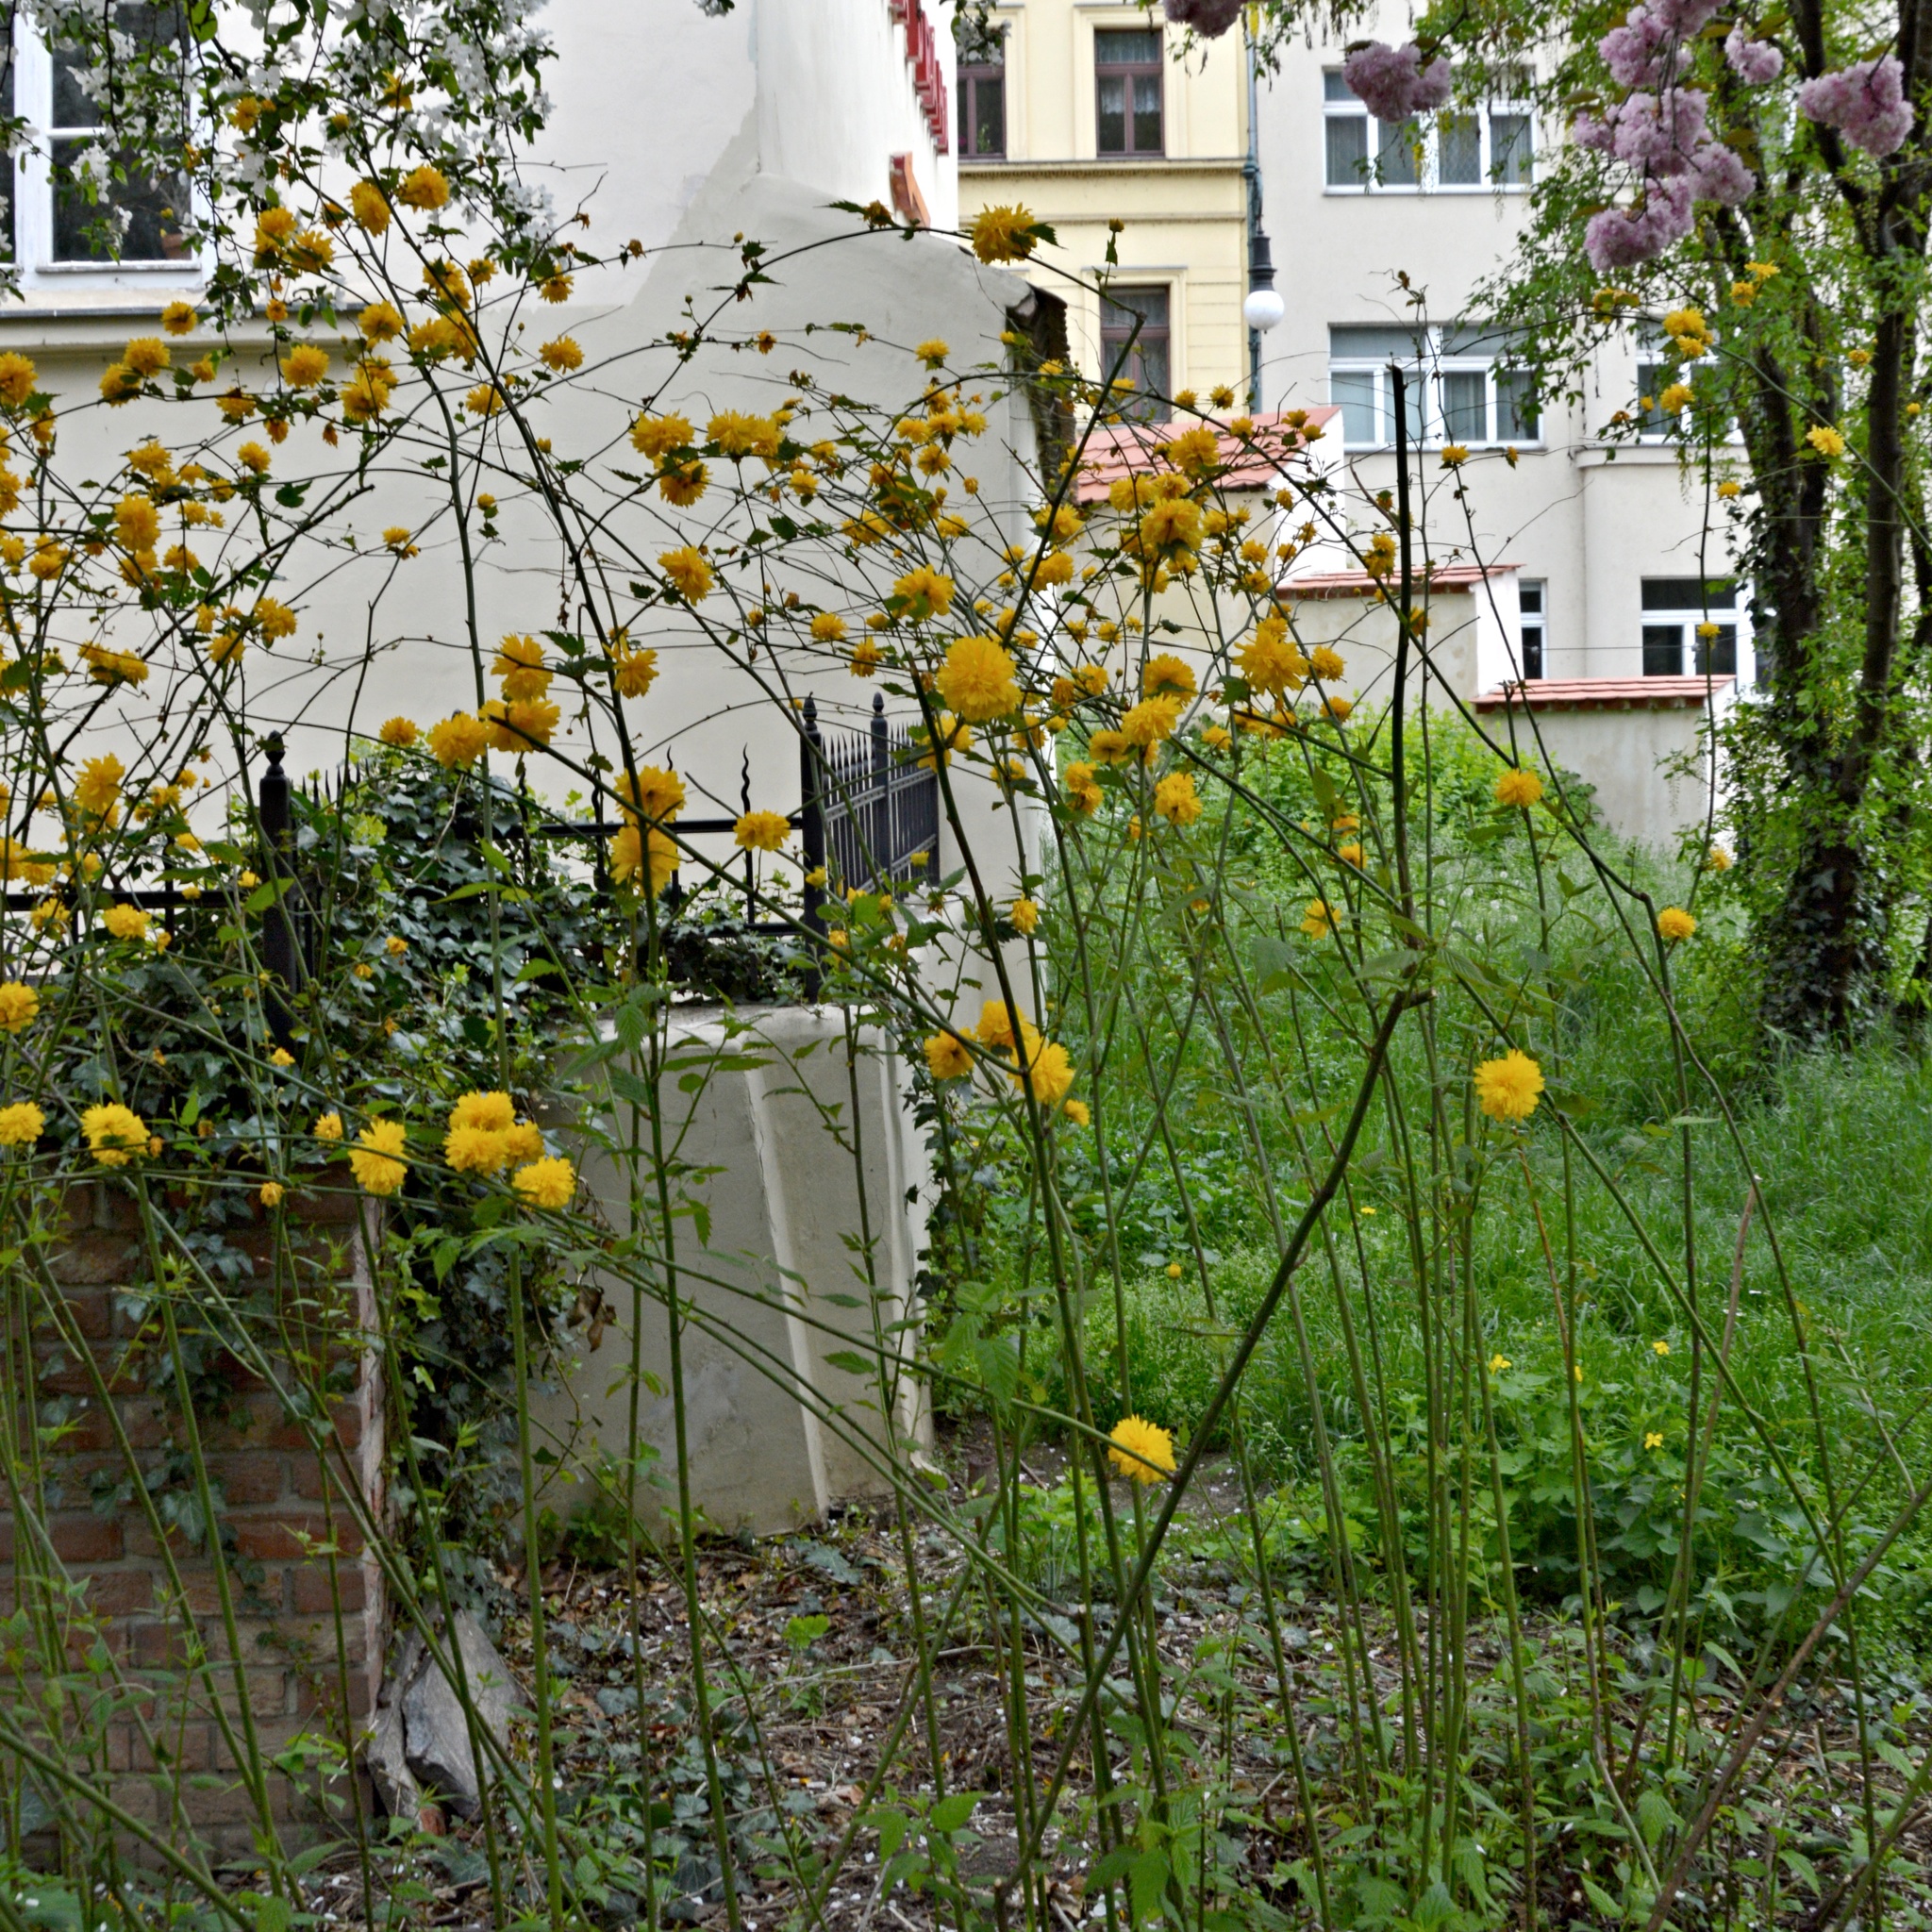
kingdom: Plantae
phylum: Tracheophyta
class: Magnoliopsida
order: Rosales
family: Rosaceae
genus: Kerria
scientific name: Kerria japonica
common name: Japanese kerria
